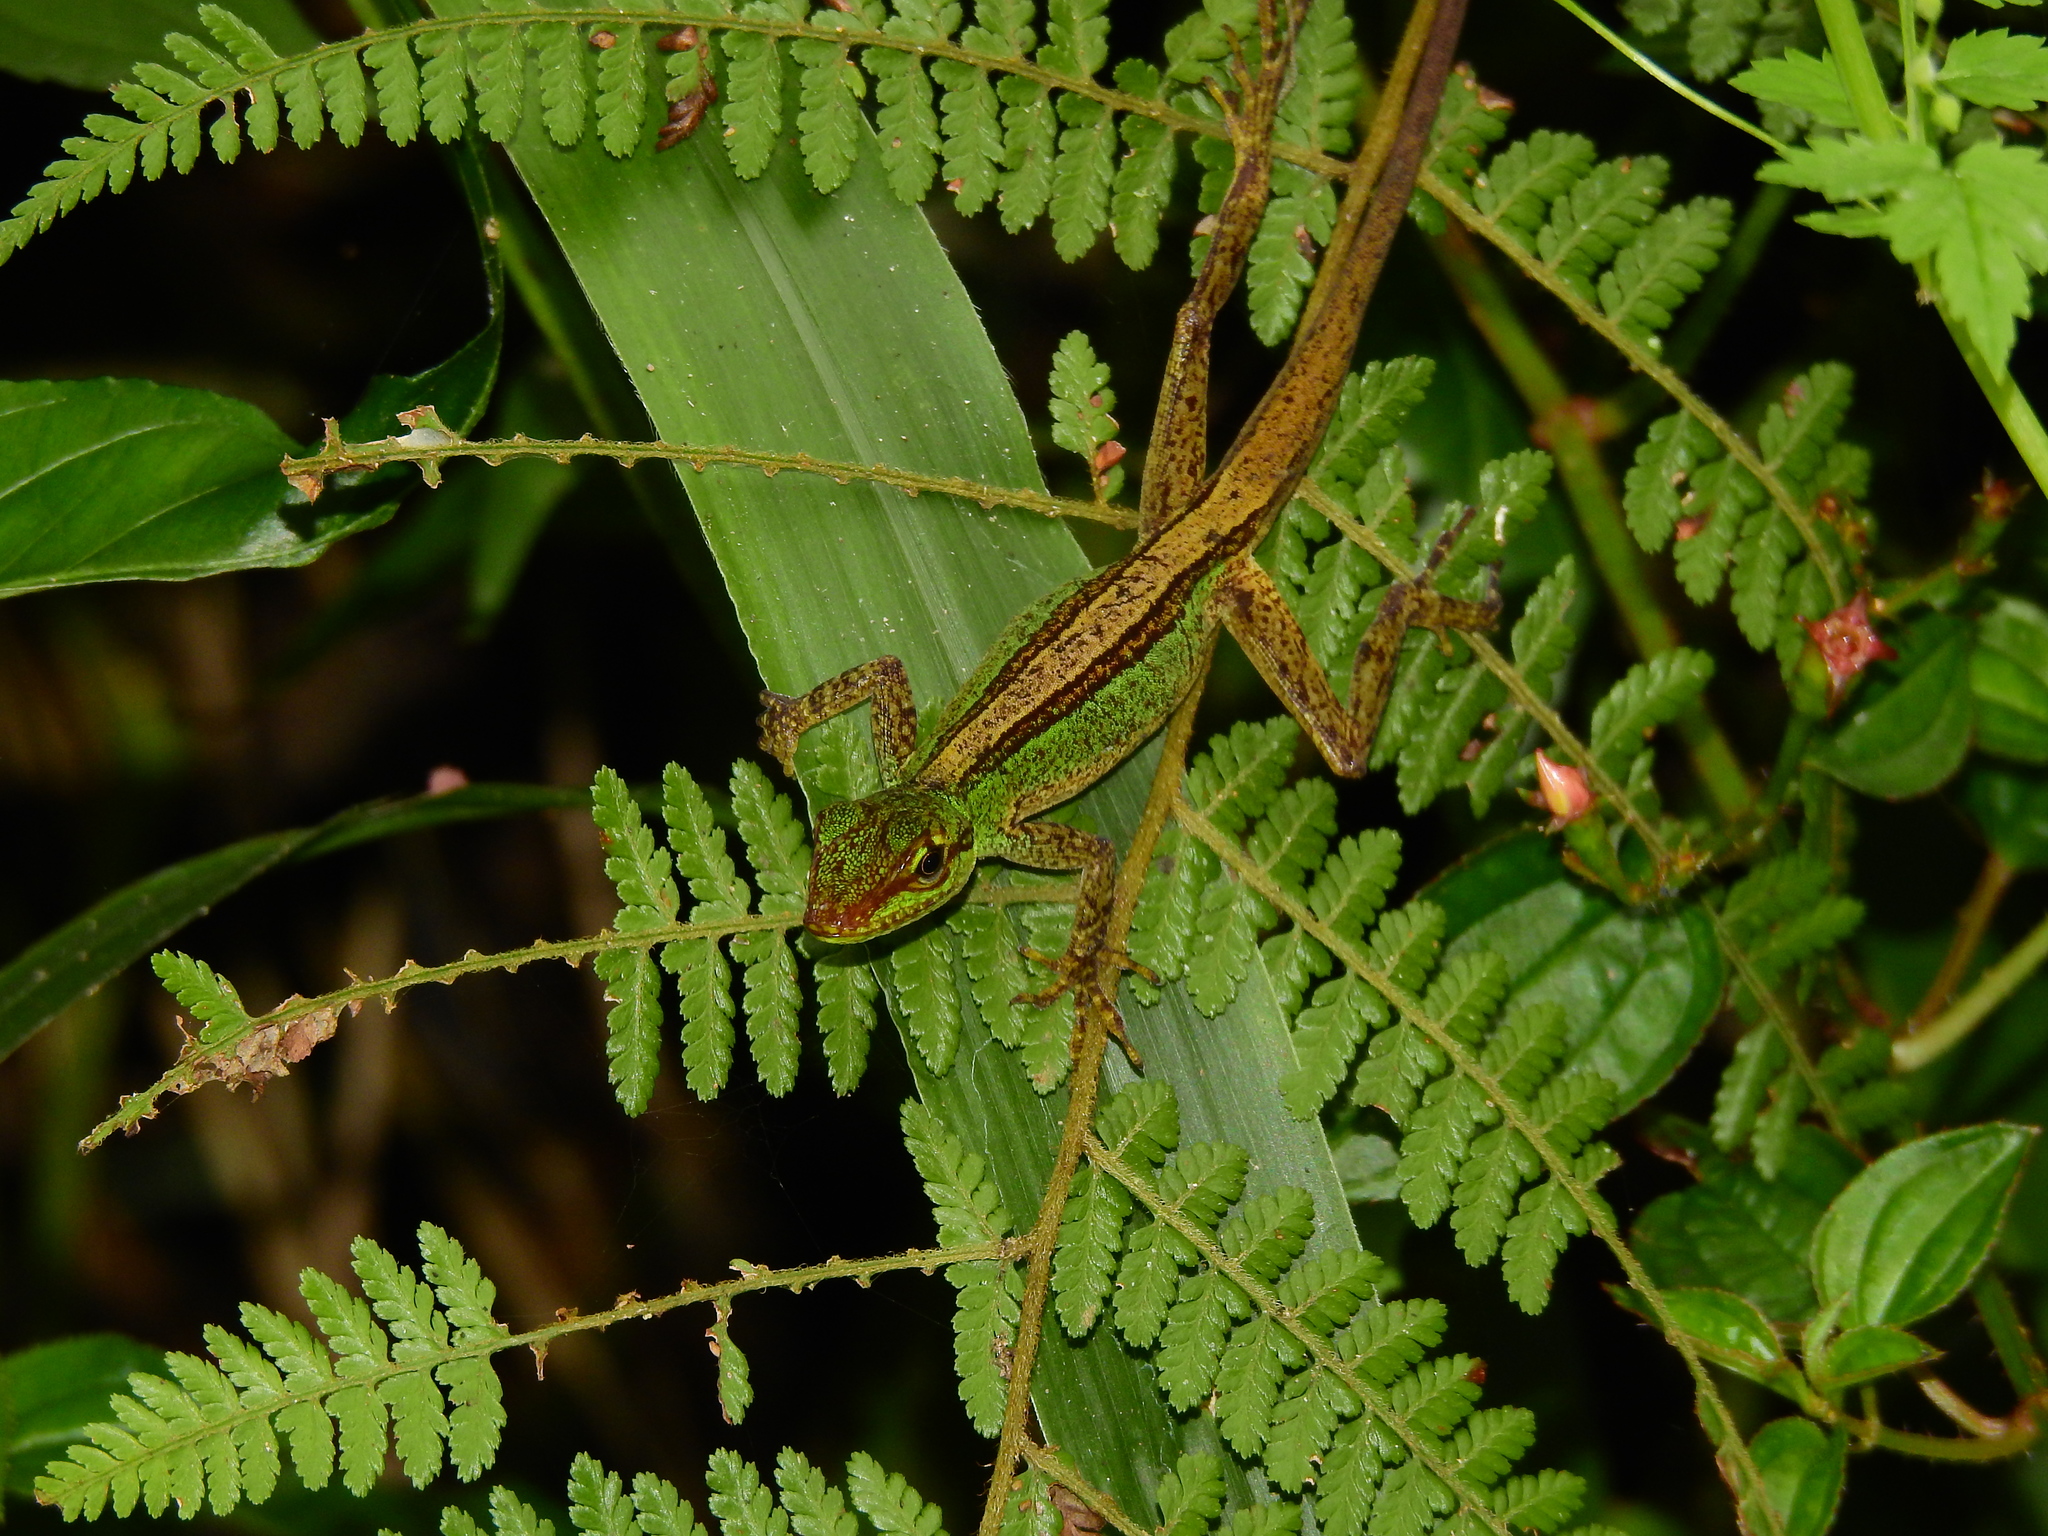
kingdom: Animalia
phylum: Chordata
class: Squamata
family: Dactyloidae
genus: Anolis
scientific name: Anolis ventrimaculatus
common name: Speckled anole
